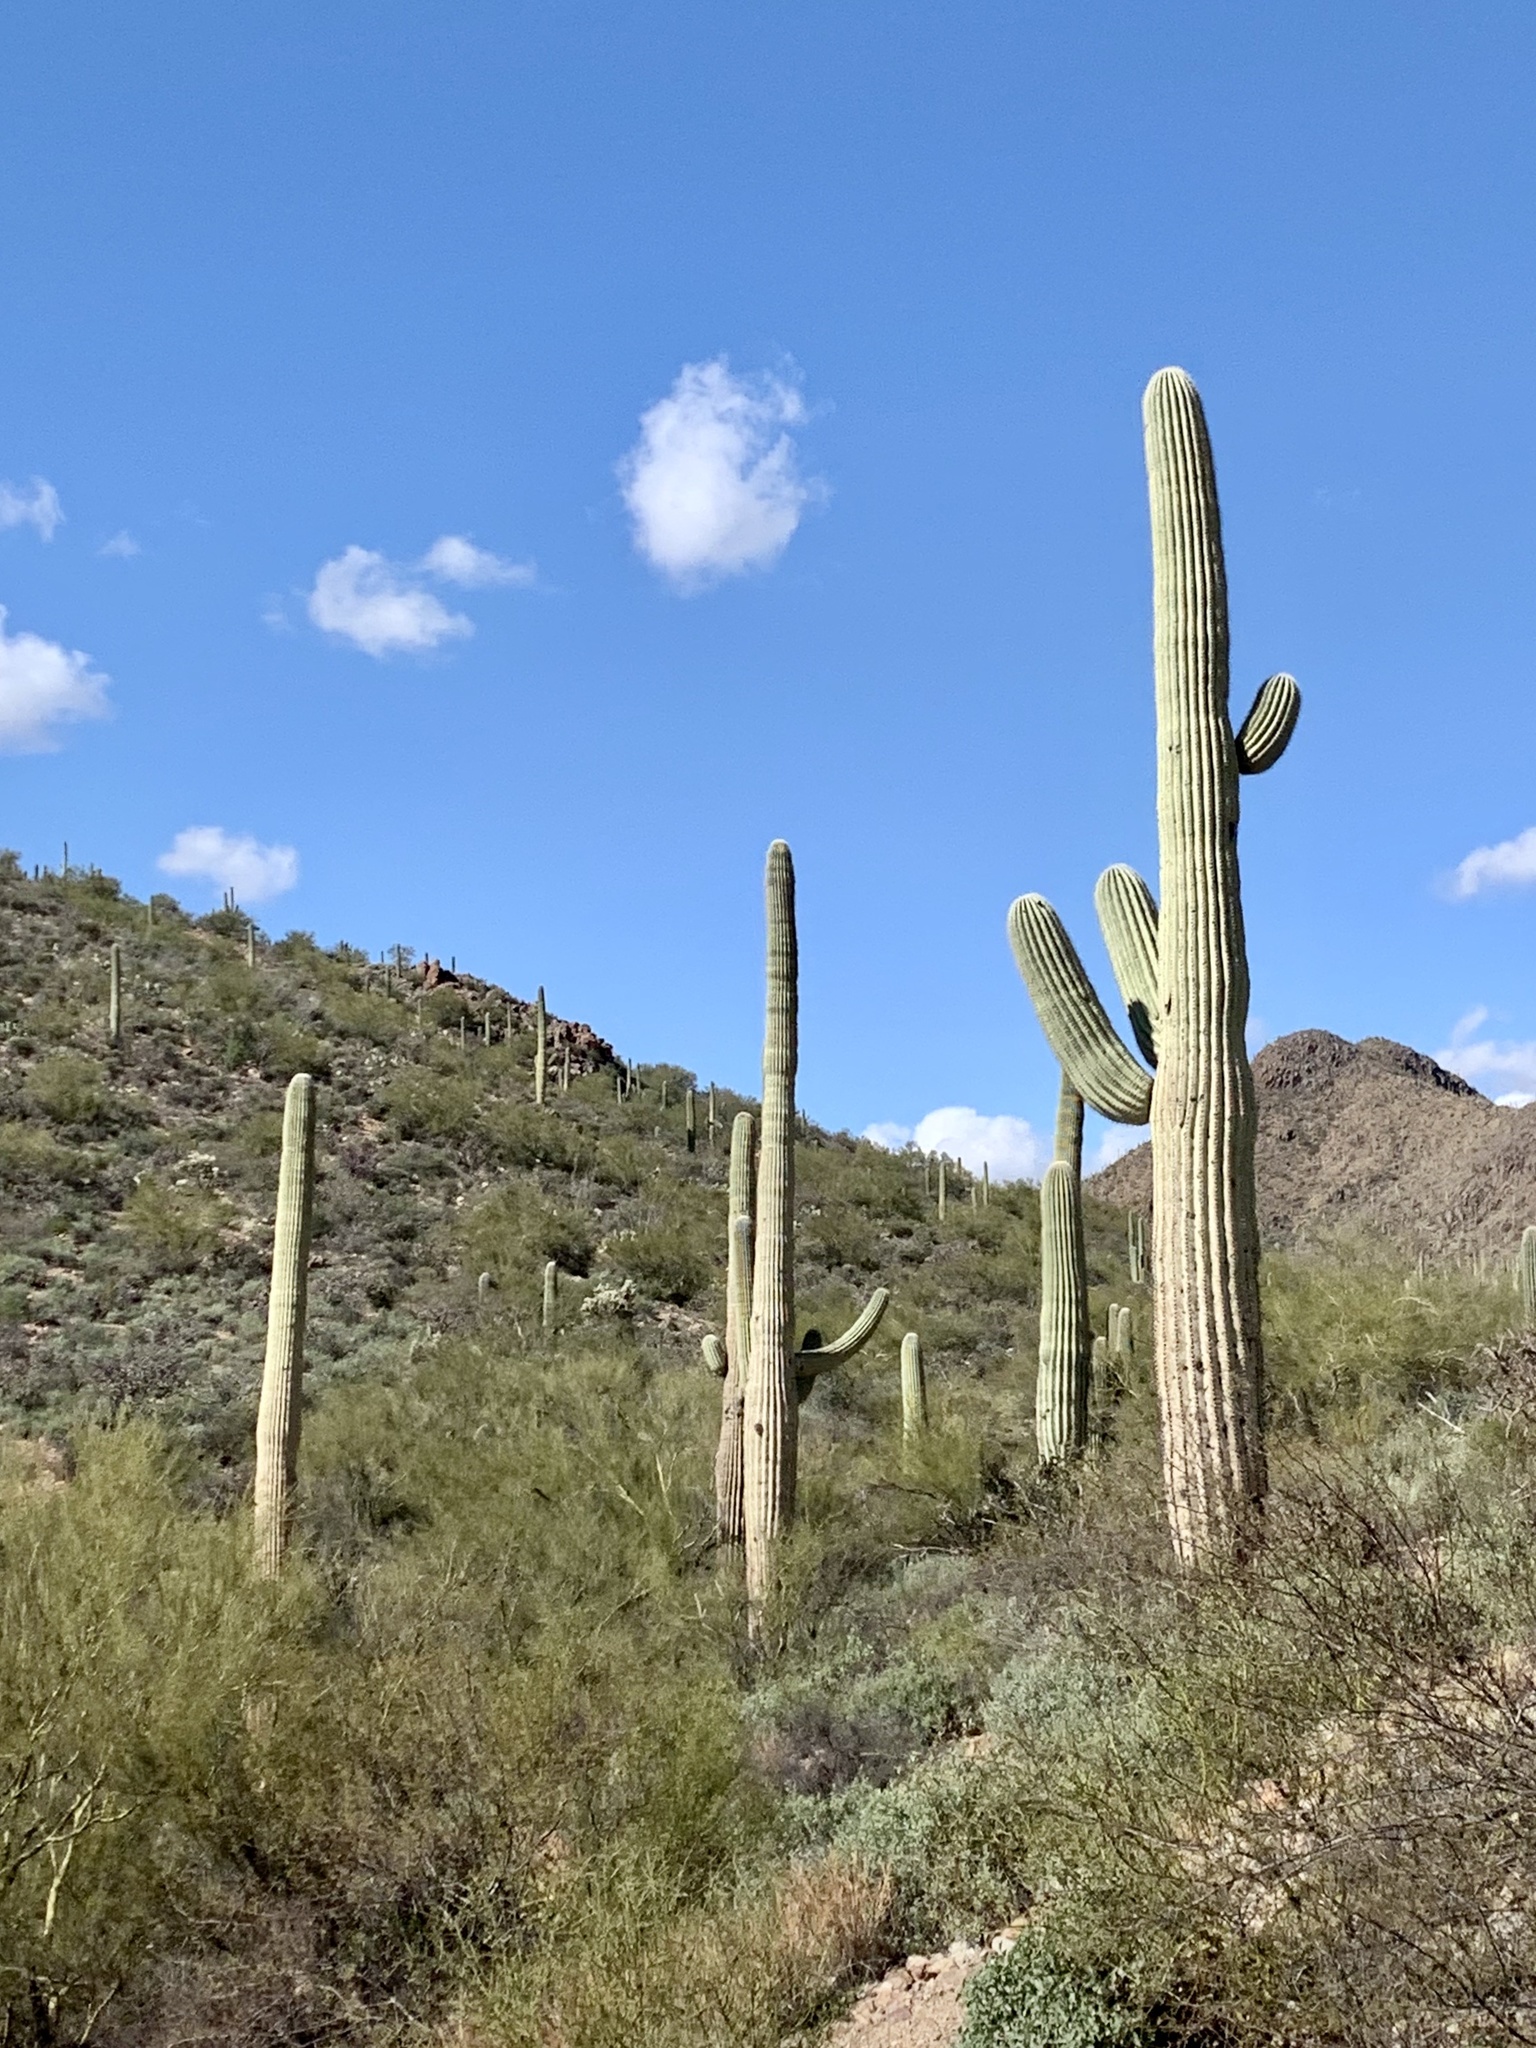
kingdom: Plantae
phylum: Tracheophyta
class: Magnoliopsida
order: Caryophyllales
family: Cactaceae
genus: Carnegiea
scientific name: Carnegiea gigantea
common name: Saguaro
